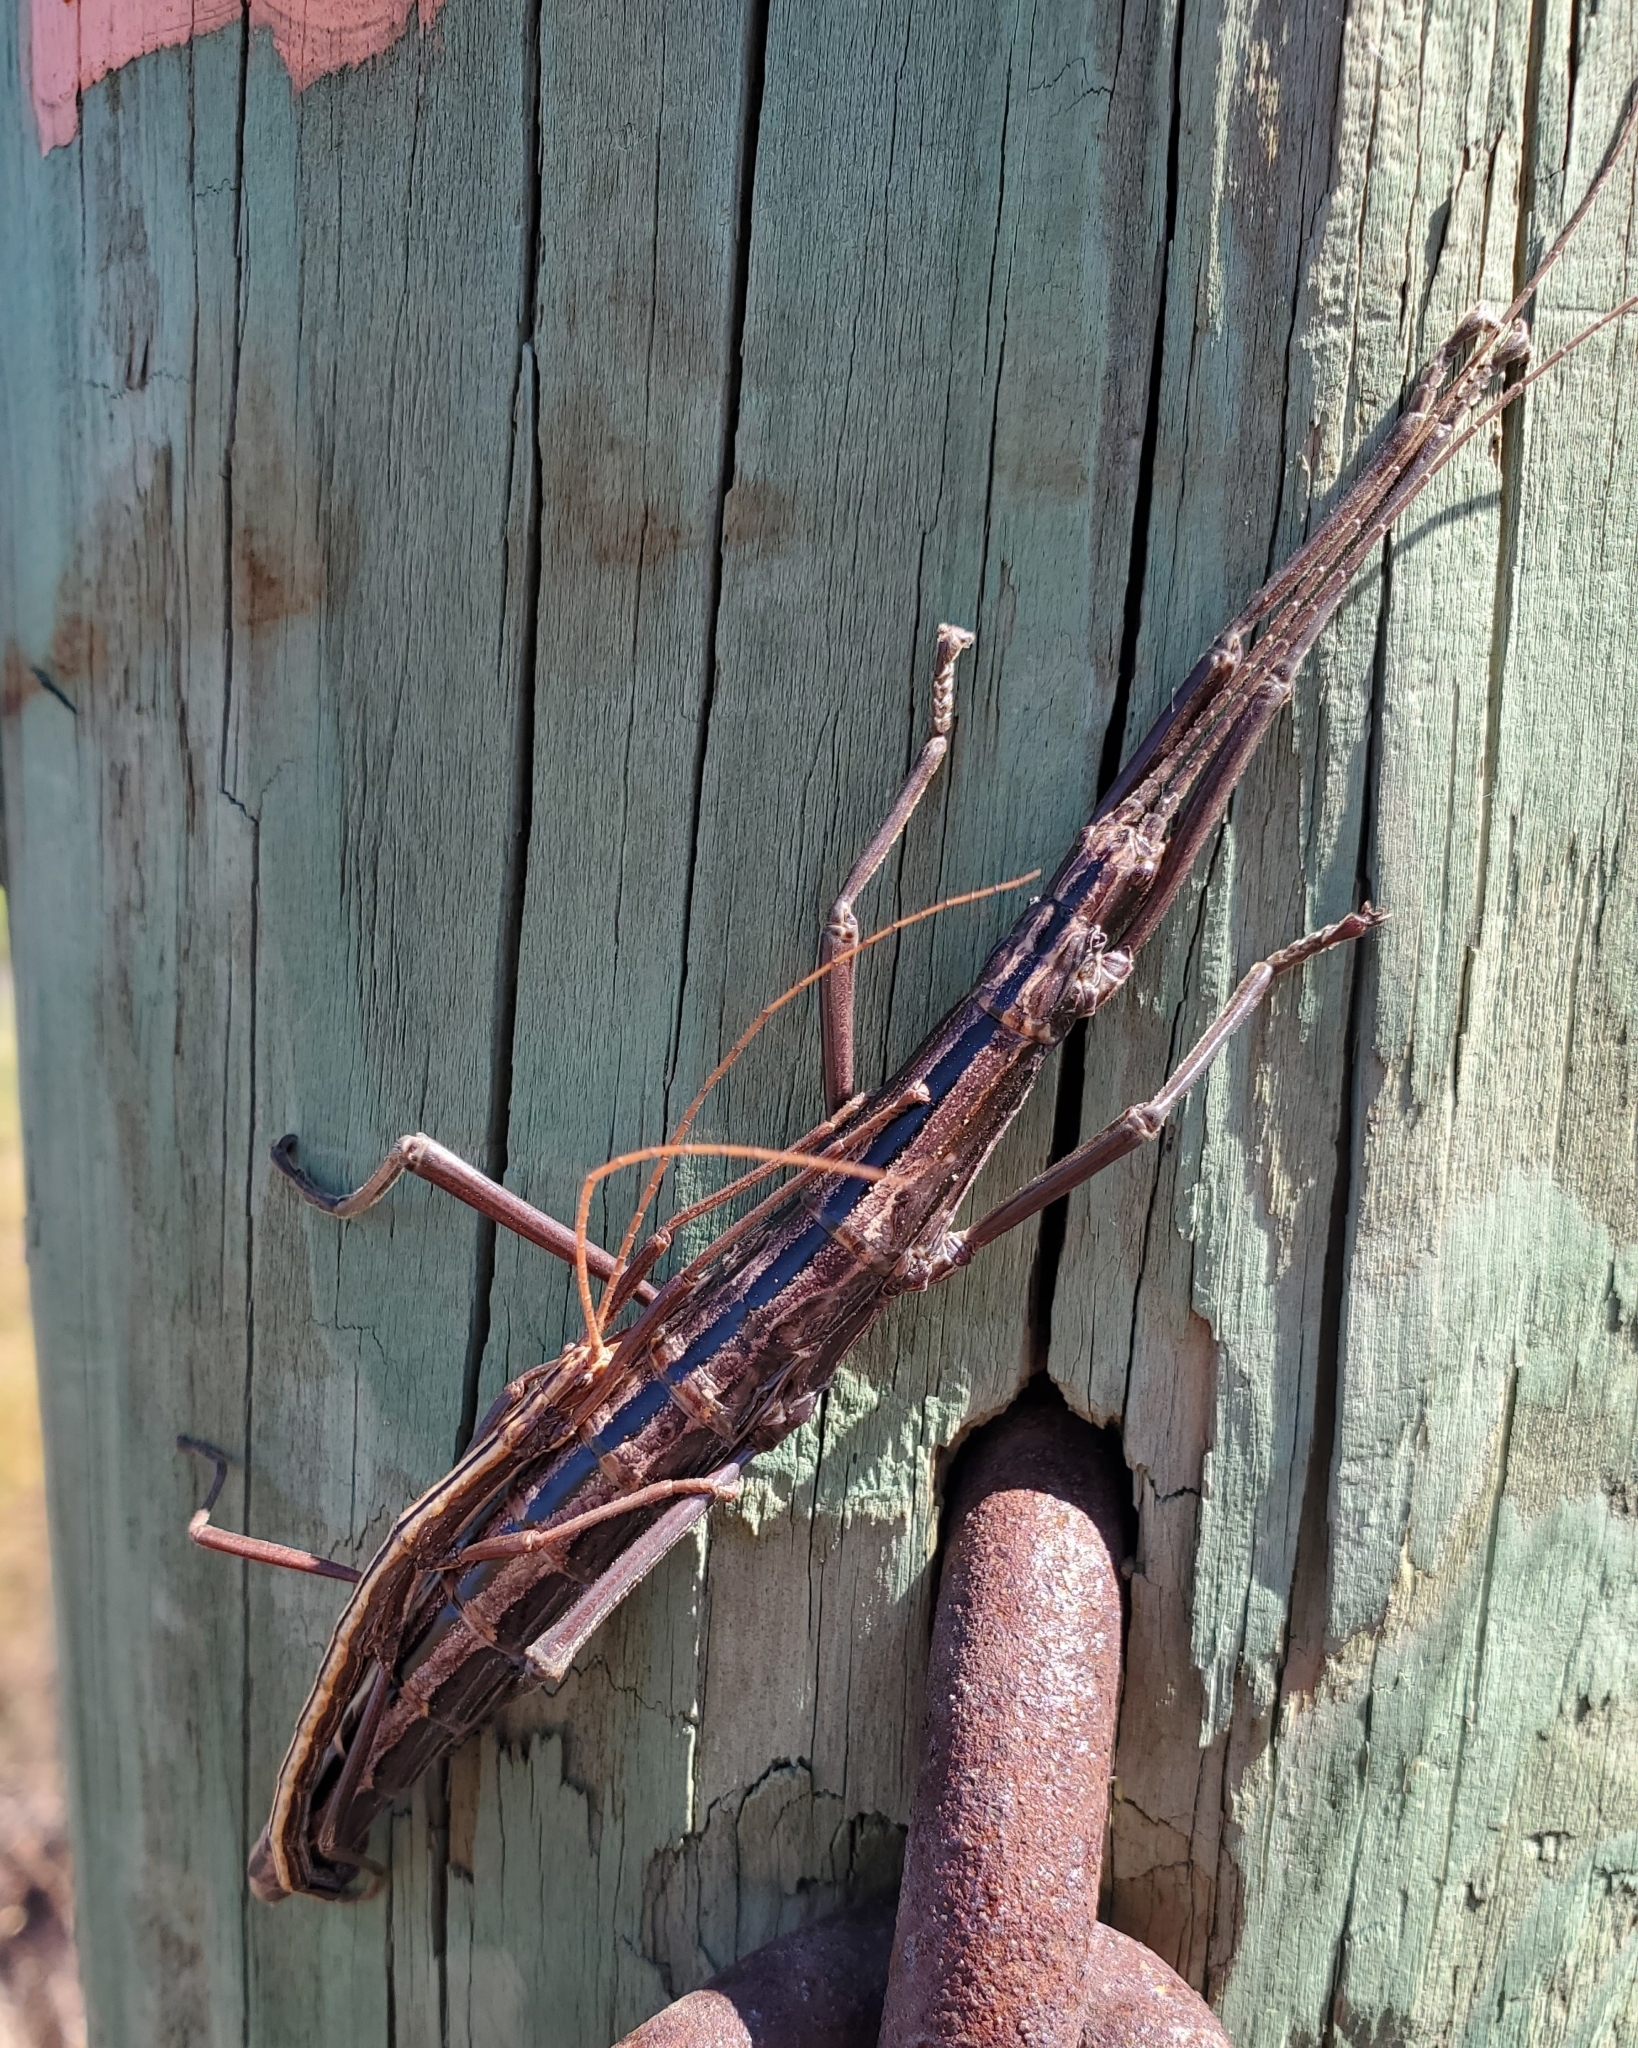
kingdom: Animalia
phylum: Arthropoda
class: Insecta
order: Phasmida
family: Pseudophasmatidae
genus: Anisomorpha
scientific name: Anisomorpha buprestoides
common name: Florida stick insect
